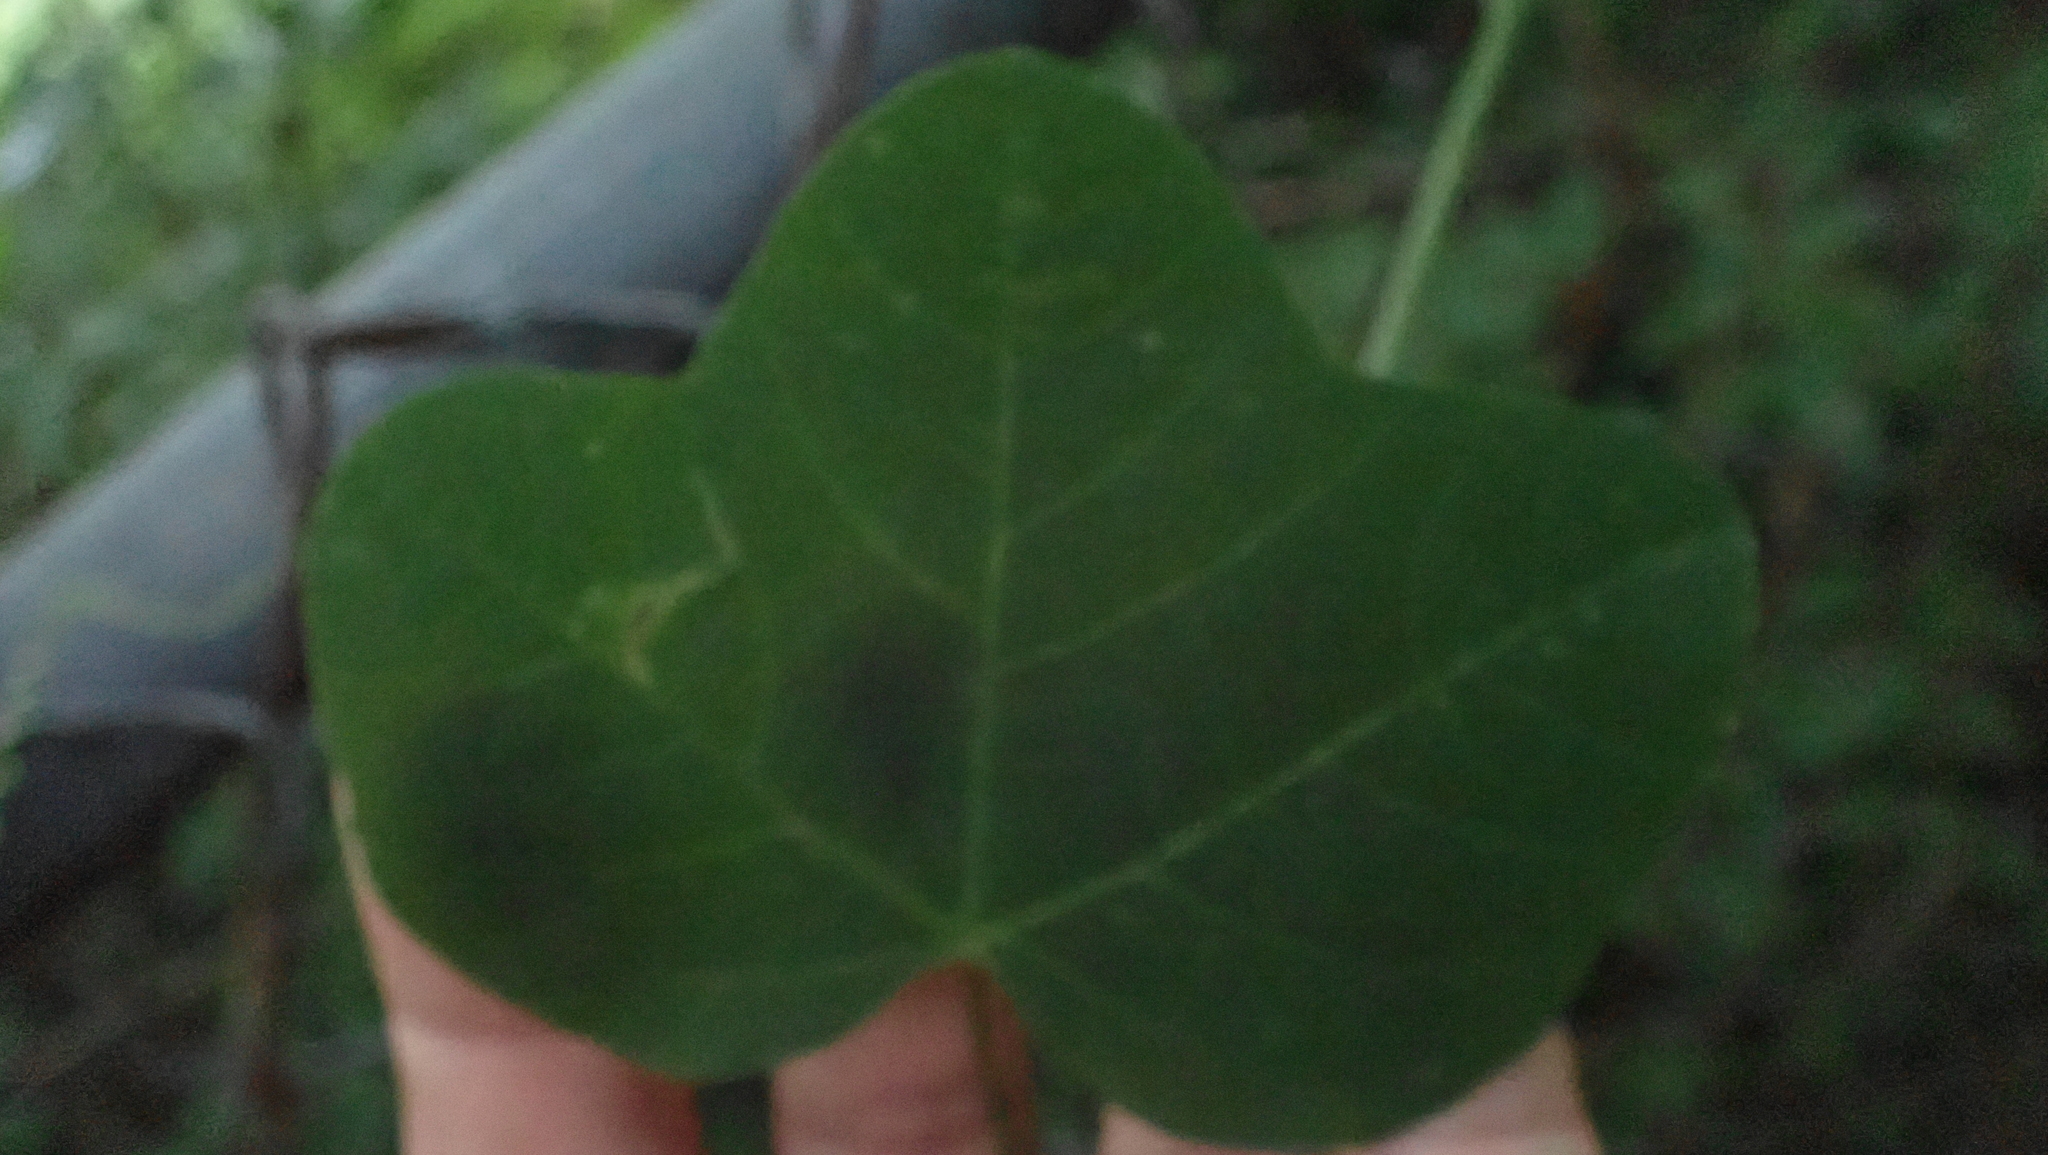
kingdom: Plantae
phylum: Tracheophyta
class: Magnoliopsida
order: Malpighiales
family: Passifloraceae
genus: Passiflora
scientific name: Passiflora lutea
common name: Yellow passionflower
